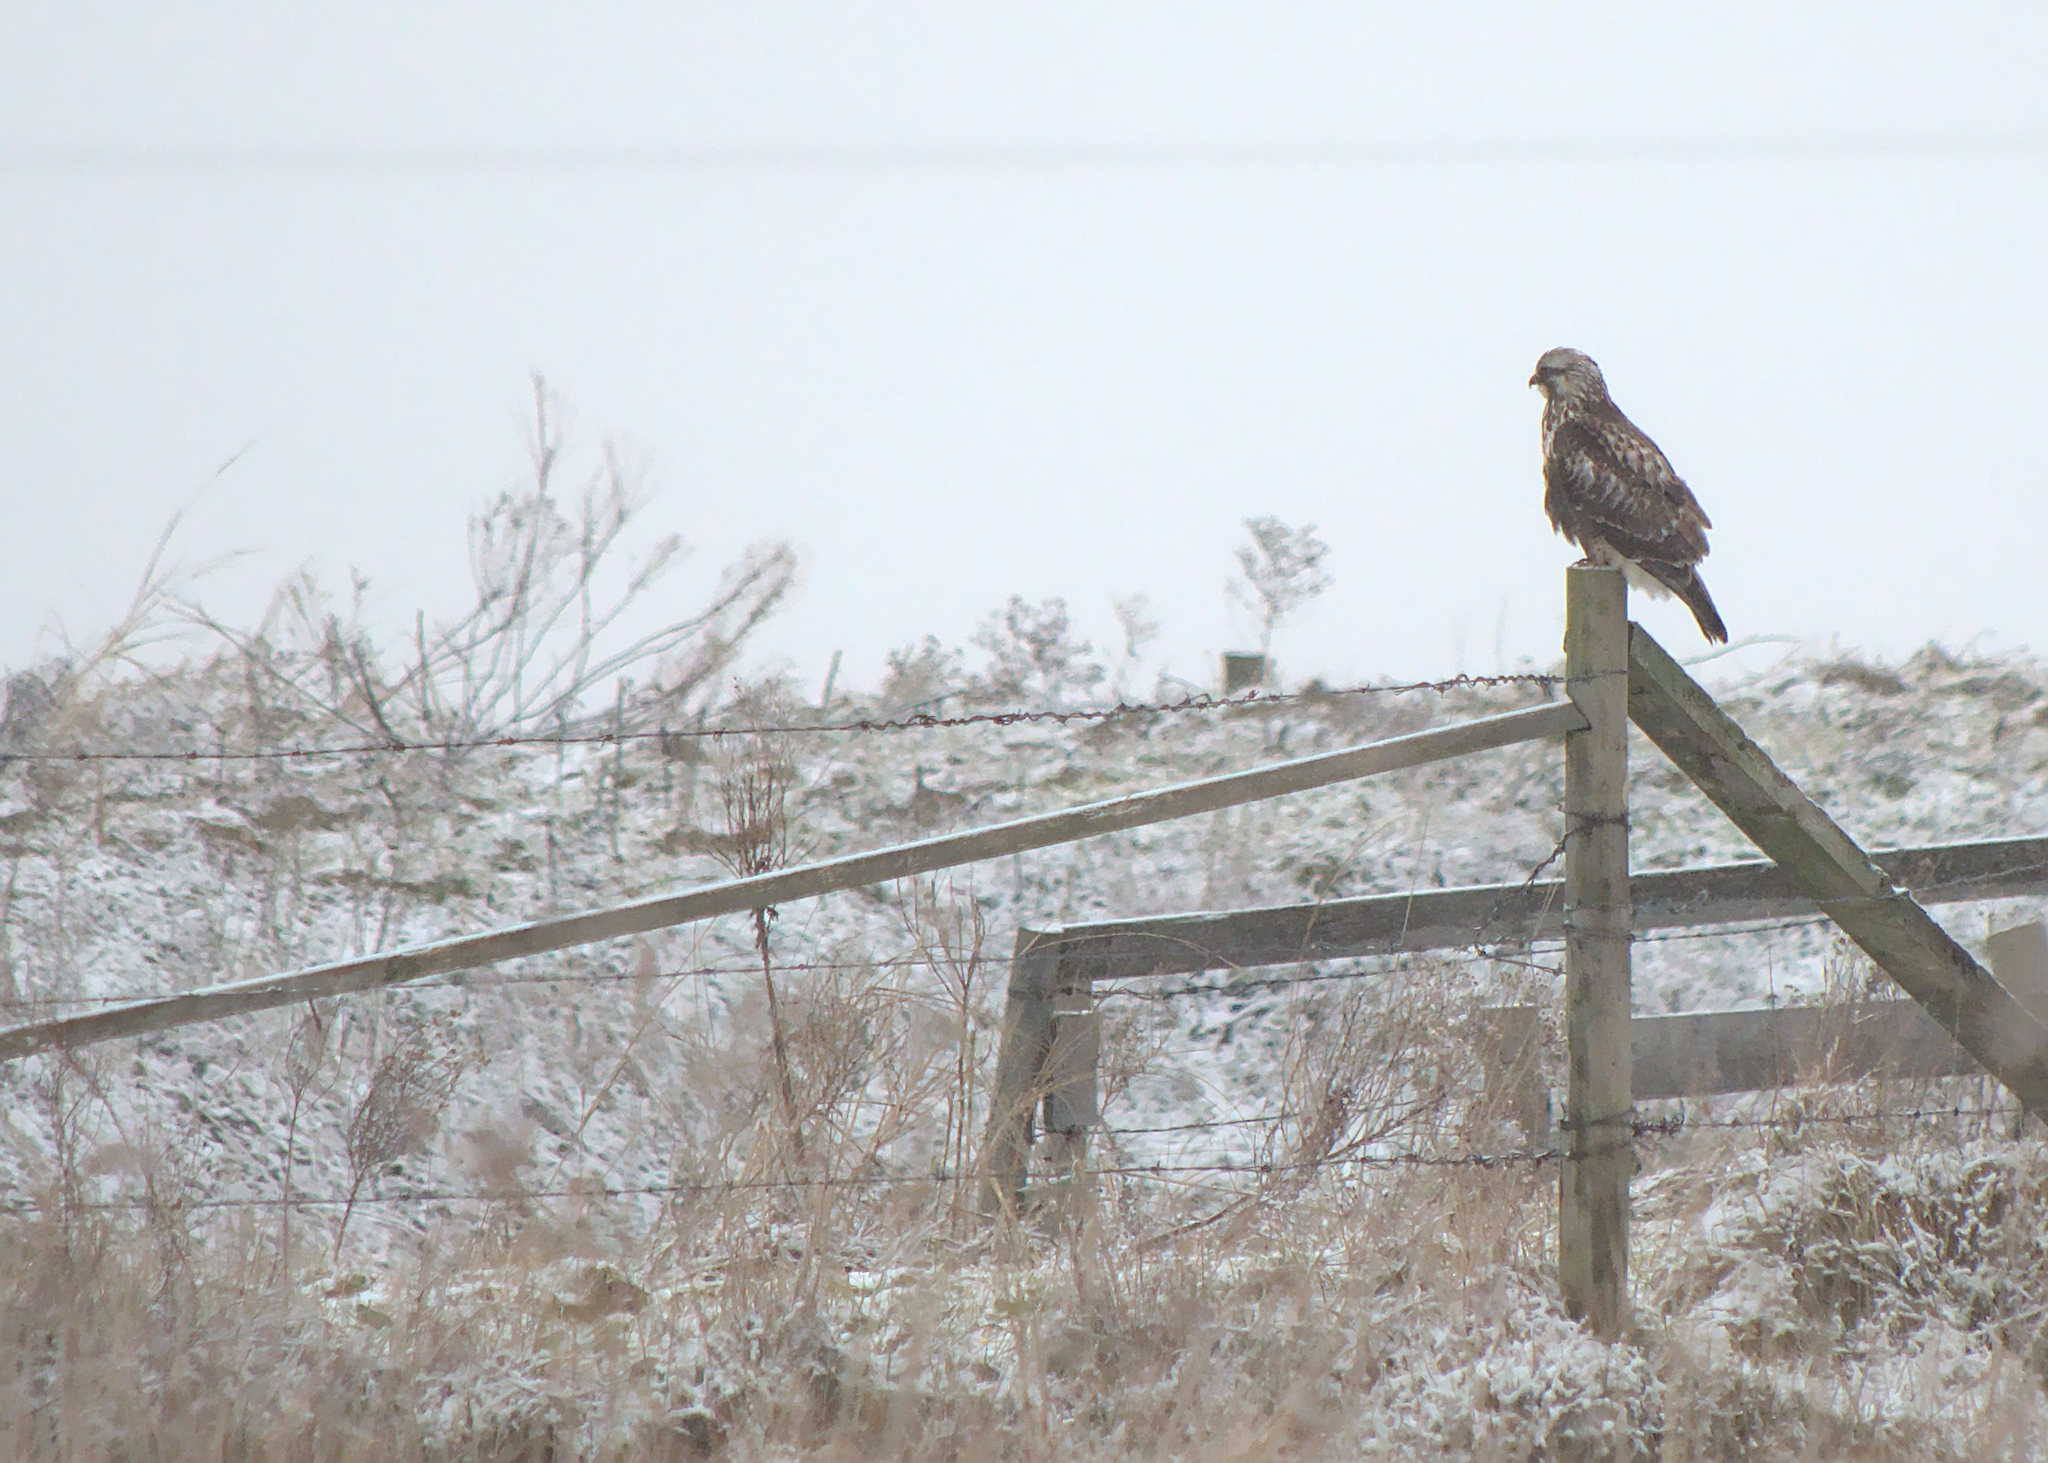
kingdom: Animalia
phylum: Chordata
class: Aves
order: Accipitriformes
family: Accipitridae
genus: Buteo
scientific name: Buteo lagopus
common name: Rough-legged buzzard
